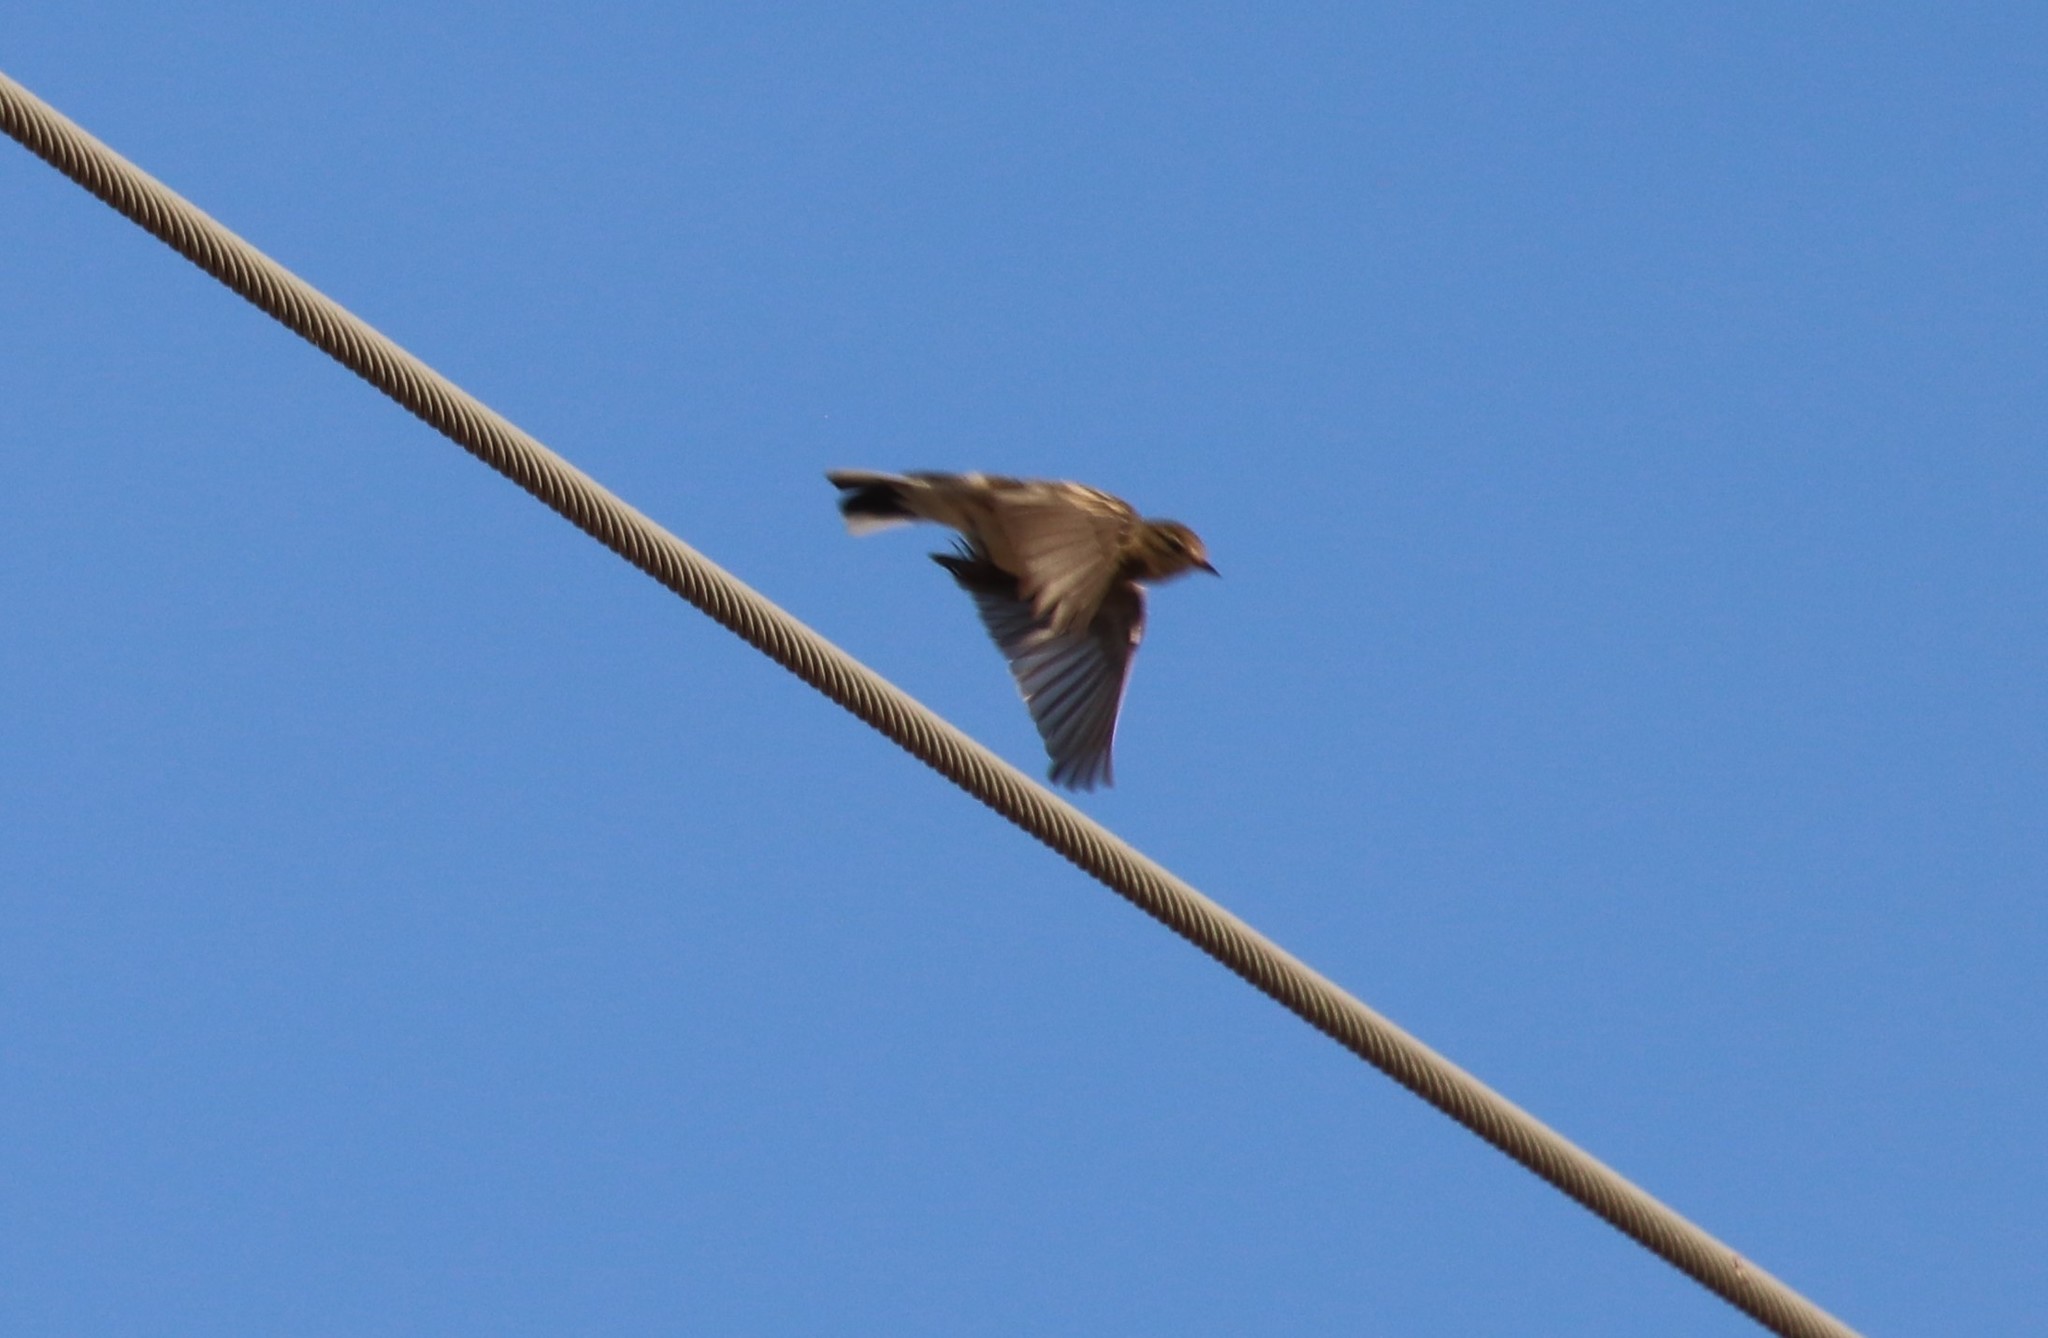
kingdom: Animalia
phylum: Chordata
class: Aves
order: Passeriformes
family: Motacillidae
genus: Anthus
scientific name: Anthus rubescens
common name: Buff-bellied pipit
